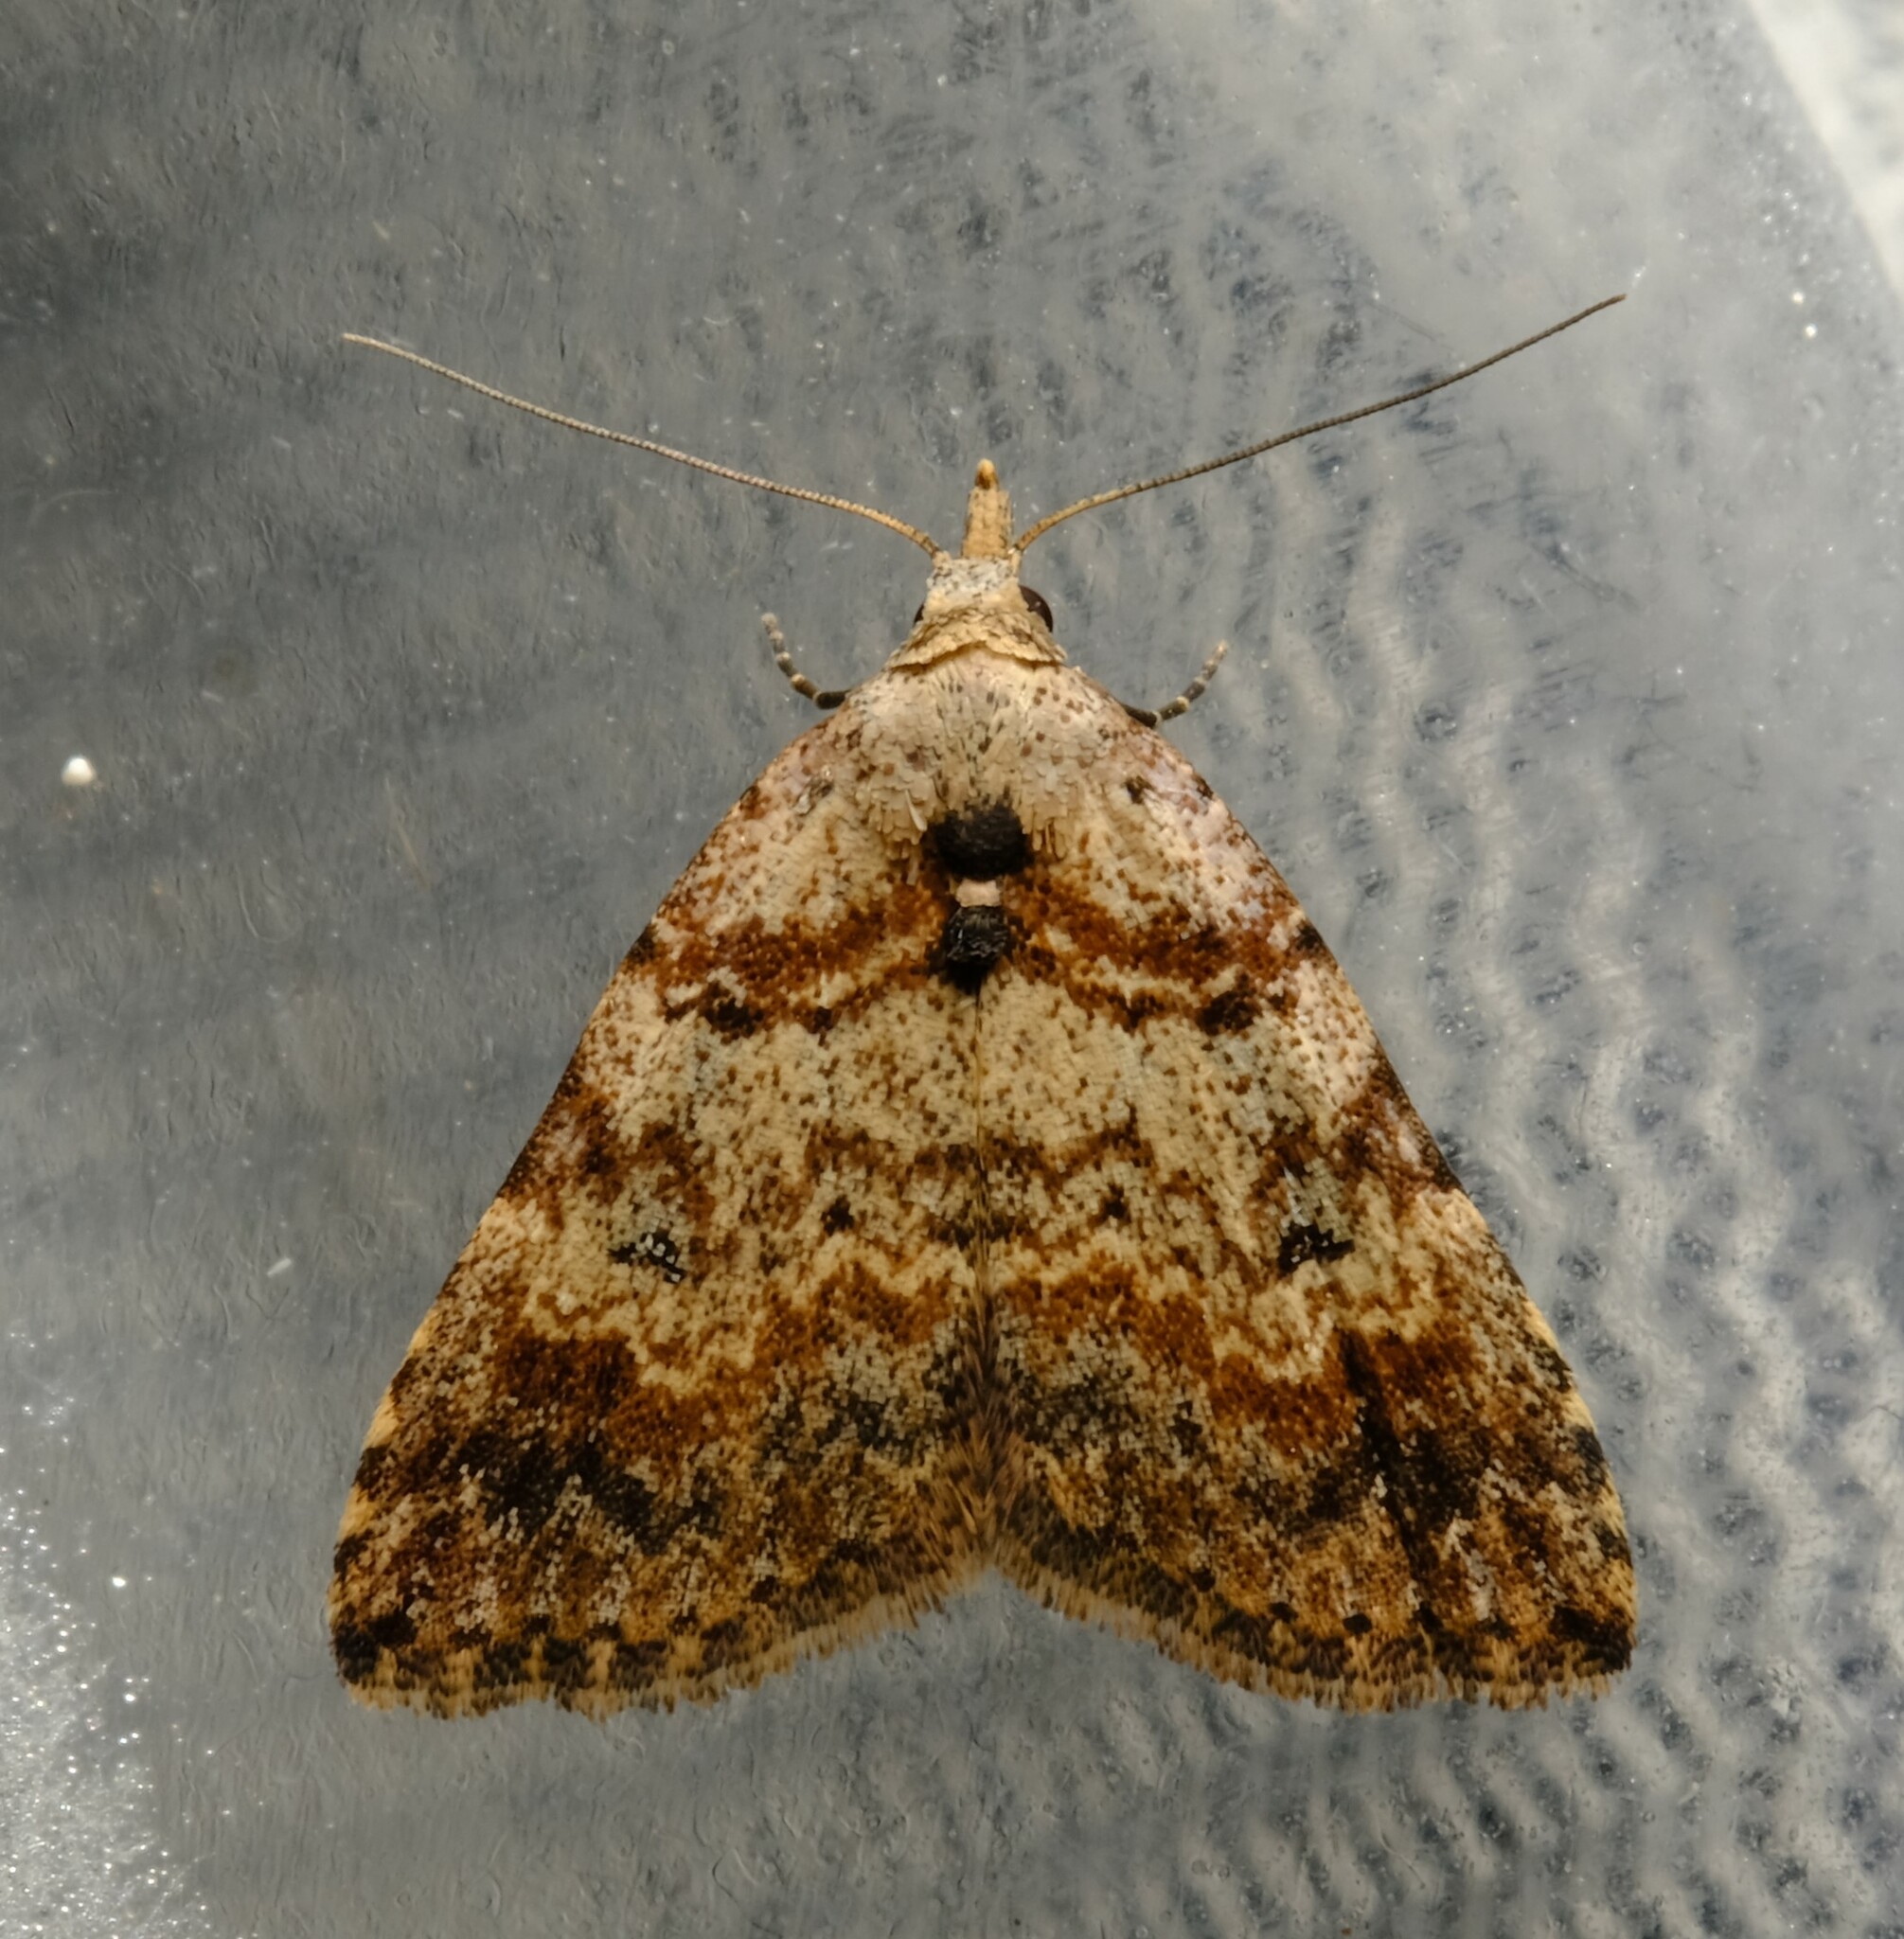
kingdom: Animalia
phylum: Arthropoda
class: Insecta
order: Lepidoptera
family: Erebidae
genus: Alapadna
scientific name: Alapadna pauropis
